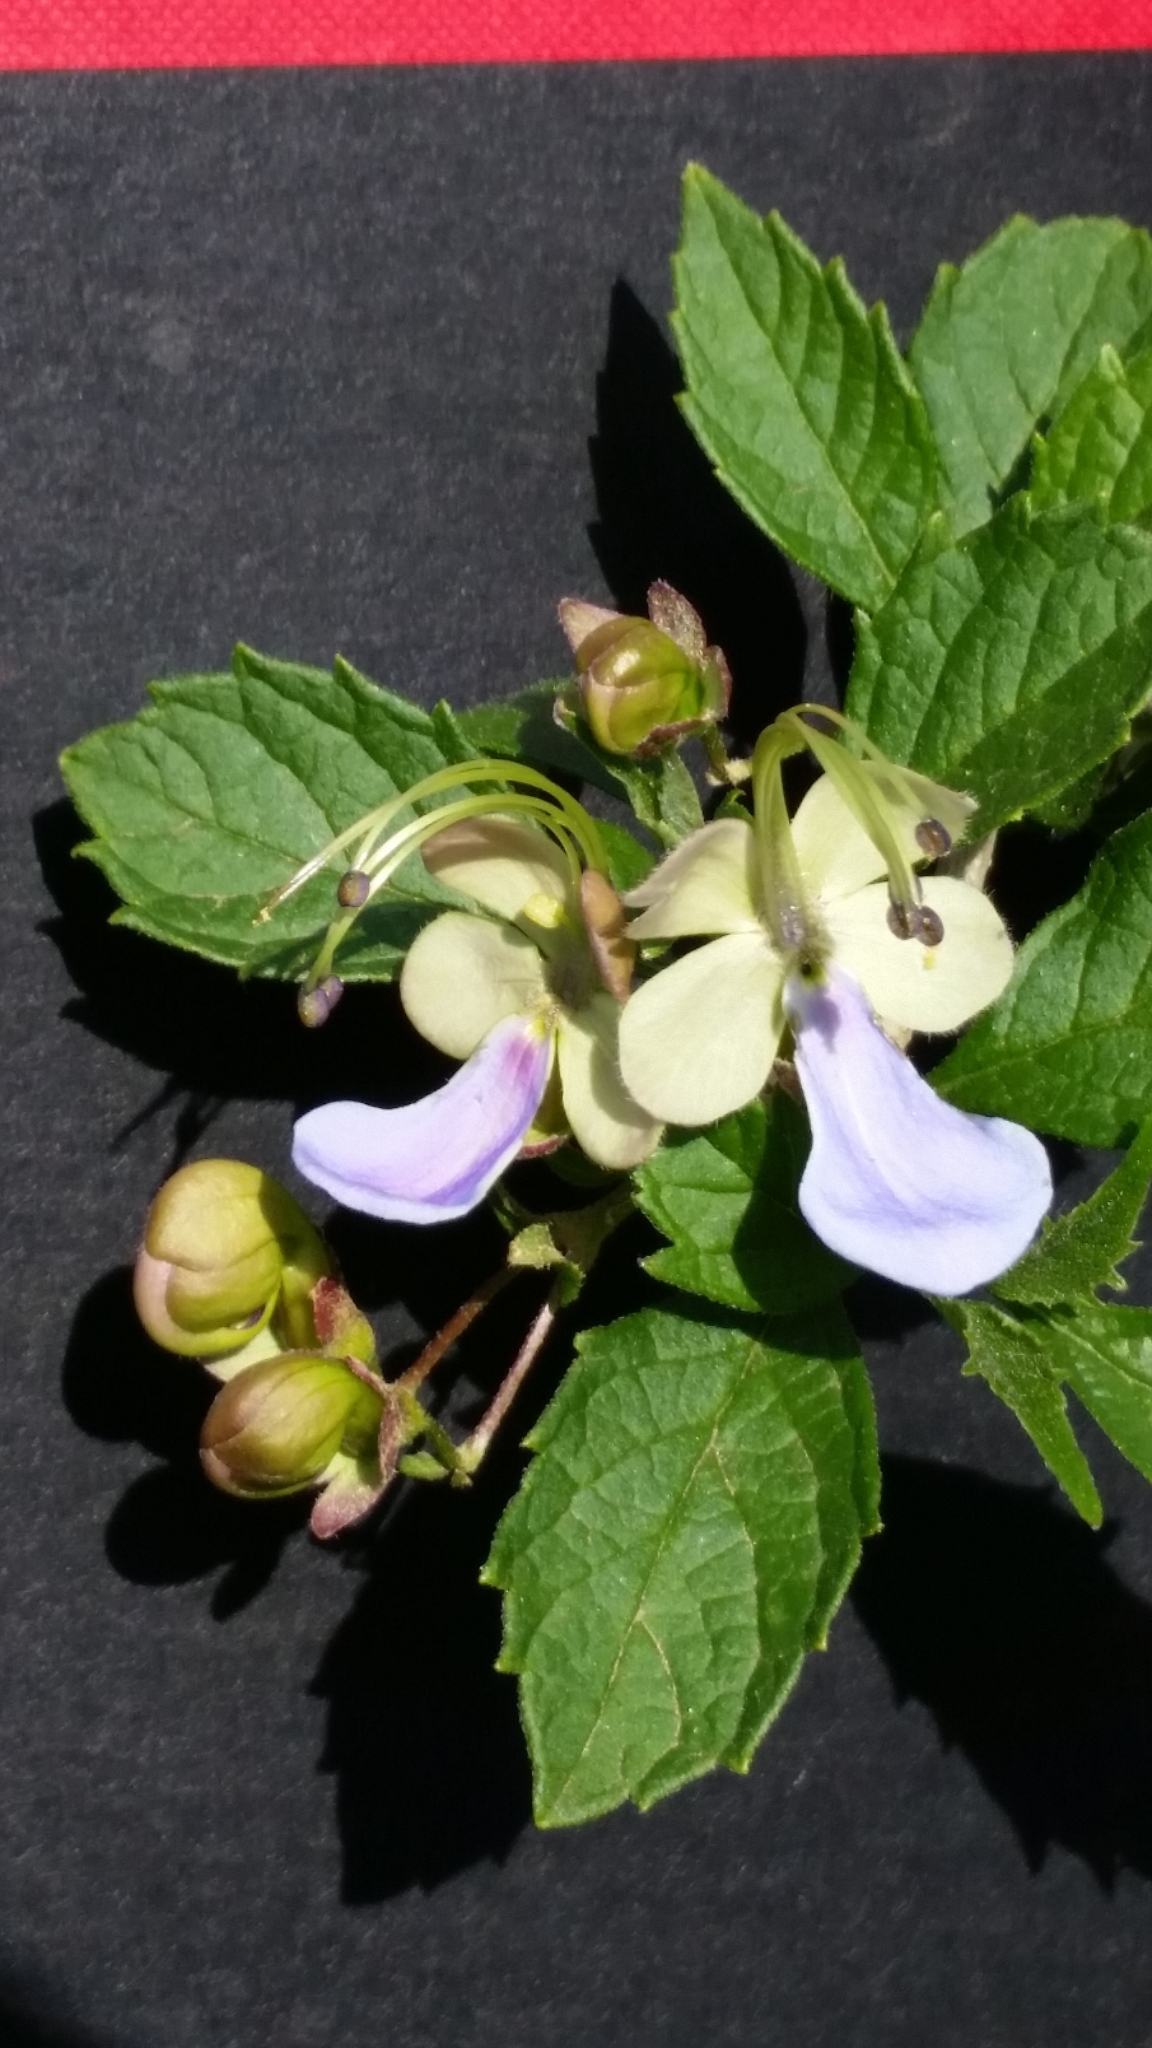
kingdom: Plantae
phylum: Tracheophyta
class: Magnoliopsida
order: Lamiales
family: Lamiaceae
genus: Rotheca
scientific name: Rotheca myricoides
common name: Cats-whiskers
